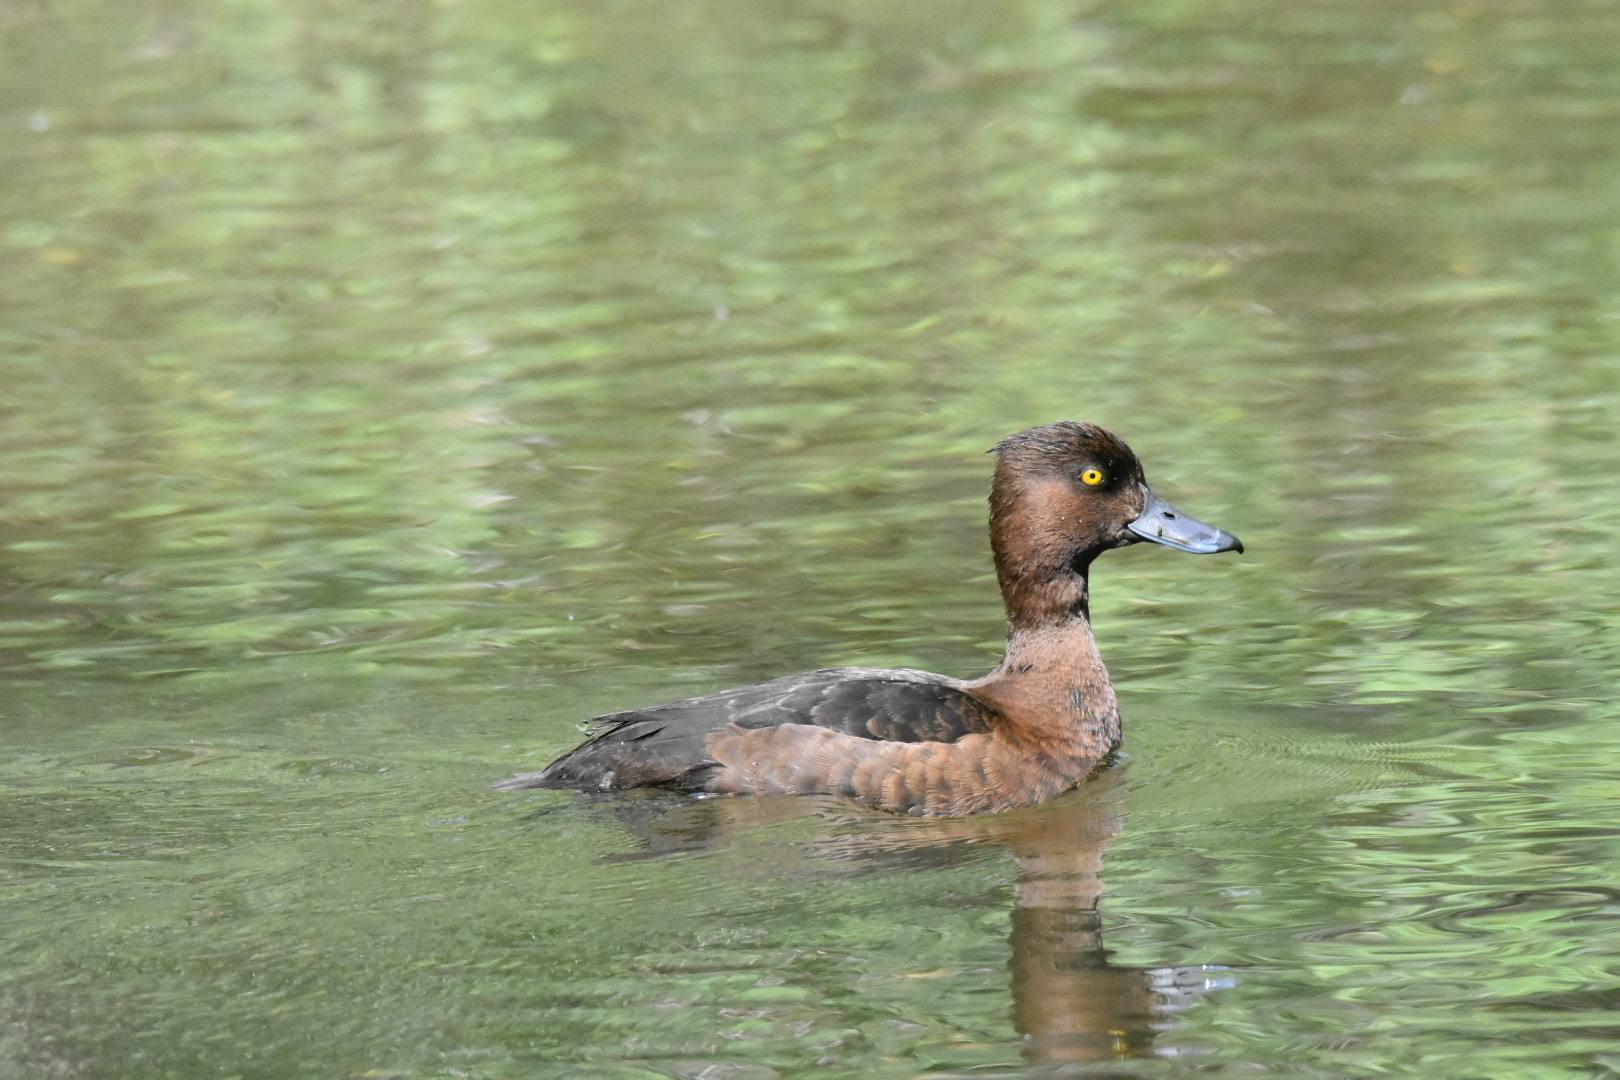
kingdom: Animalia
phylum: Chordata
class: Aves
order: Anseriformes
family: Anatidae
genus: Aythya
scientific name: Aythya fuligula
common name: Tufted duck
